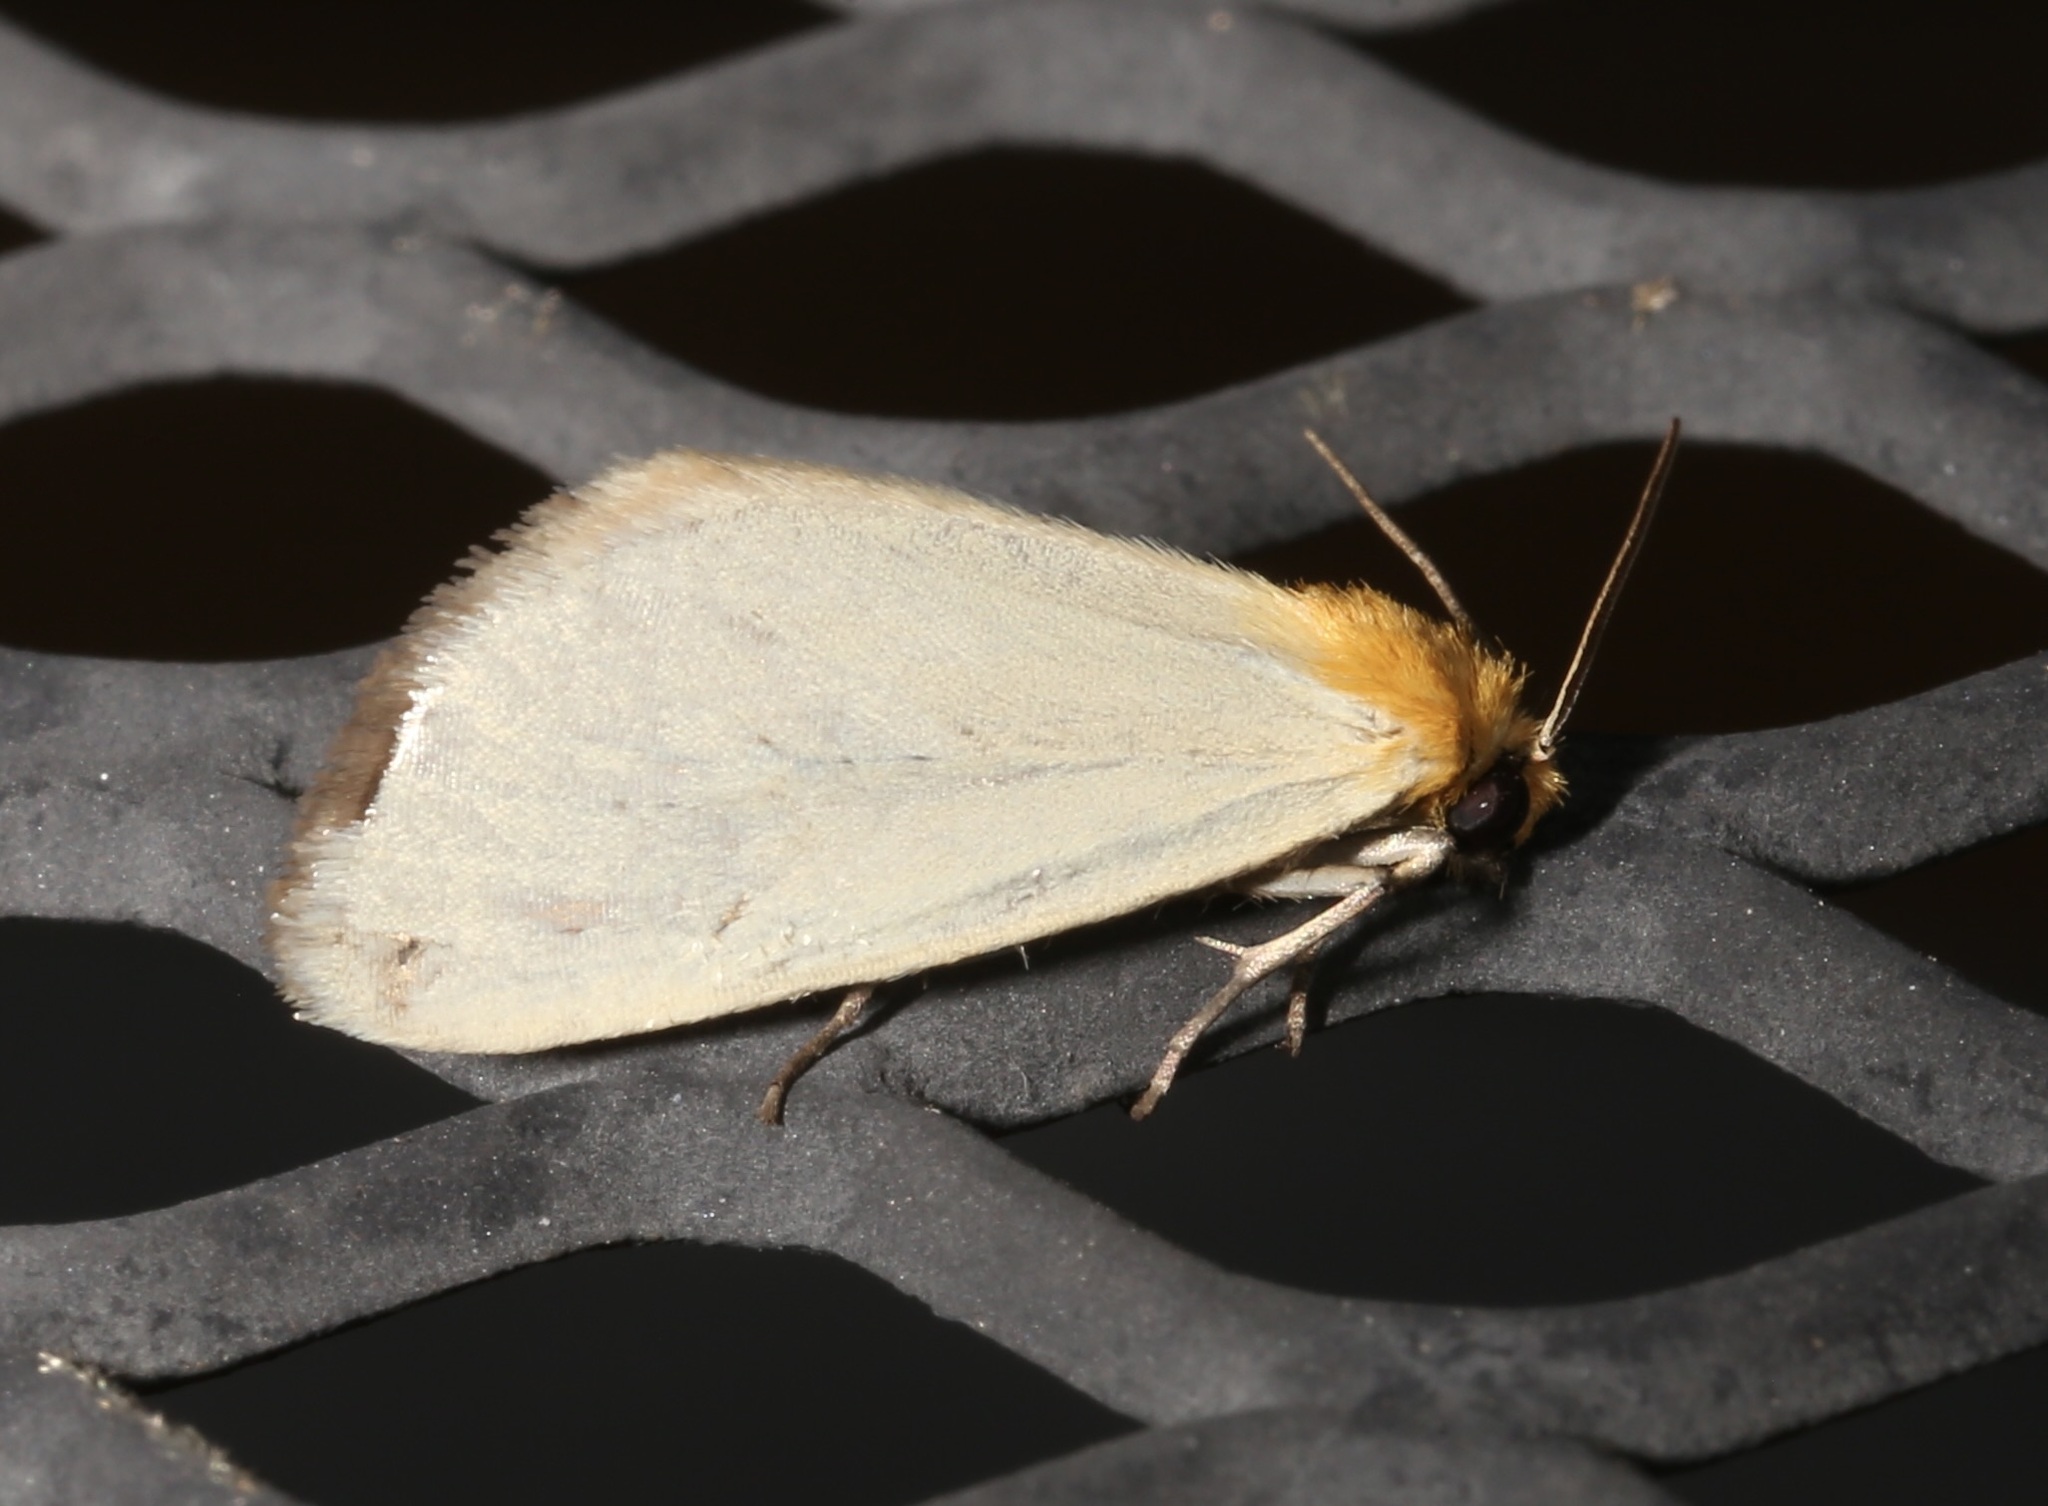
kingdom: Animalia
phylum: Arthropoda
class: Insecta
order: Lepidoptera
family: Noctuidae
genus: Chrysoecia
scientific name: Chrysoecia thoracica
